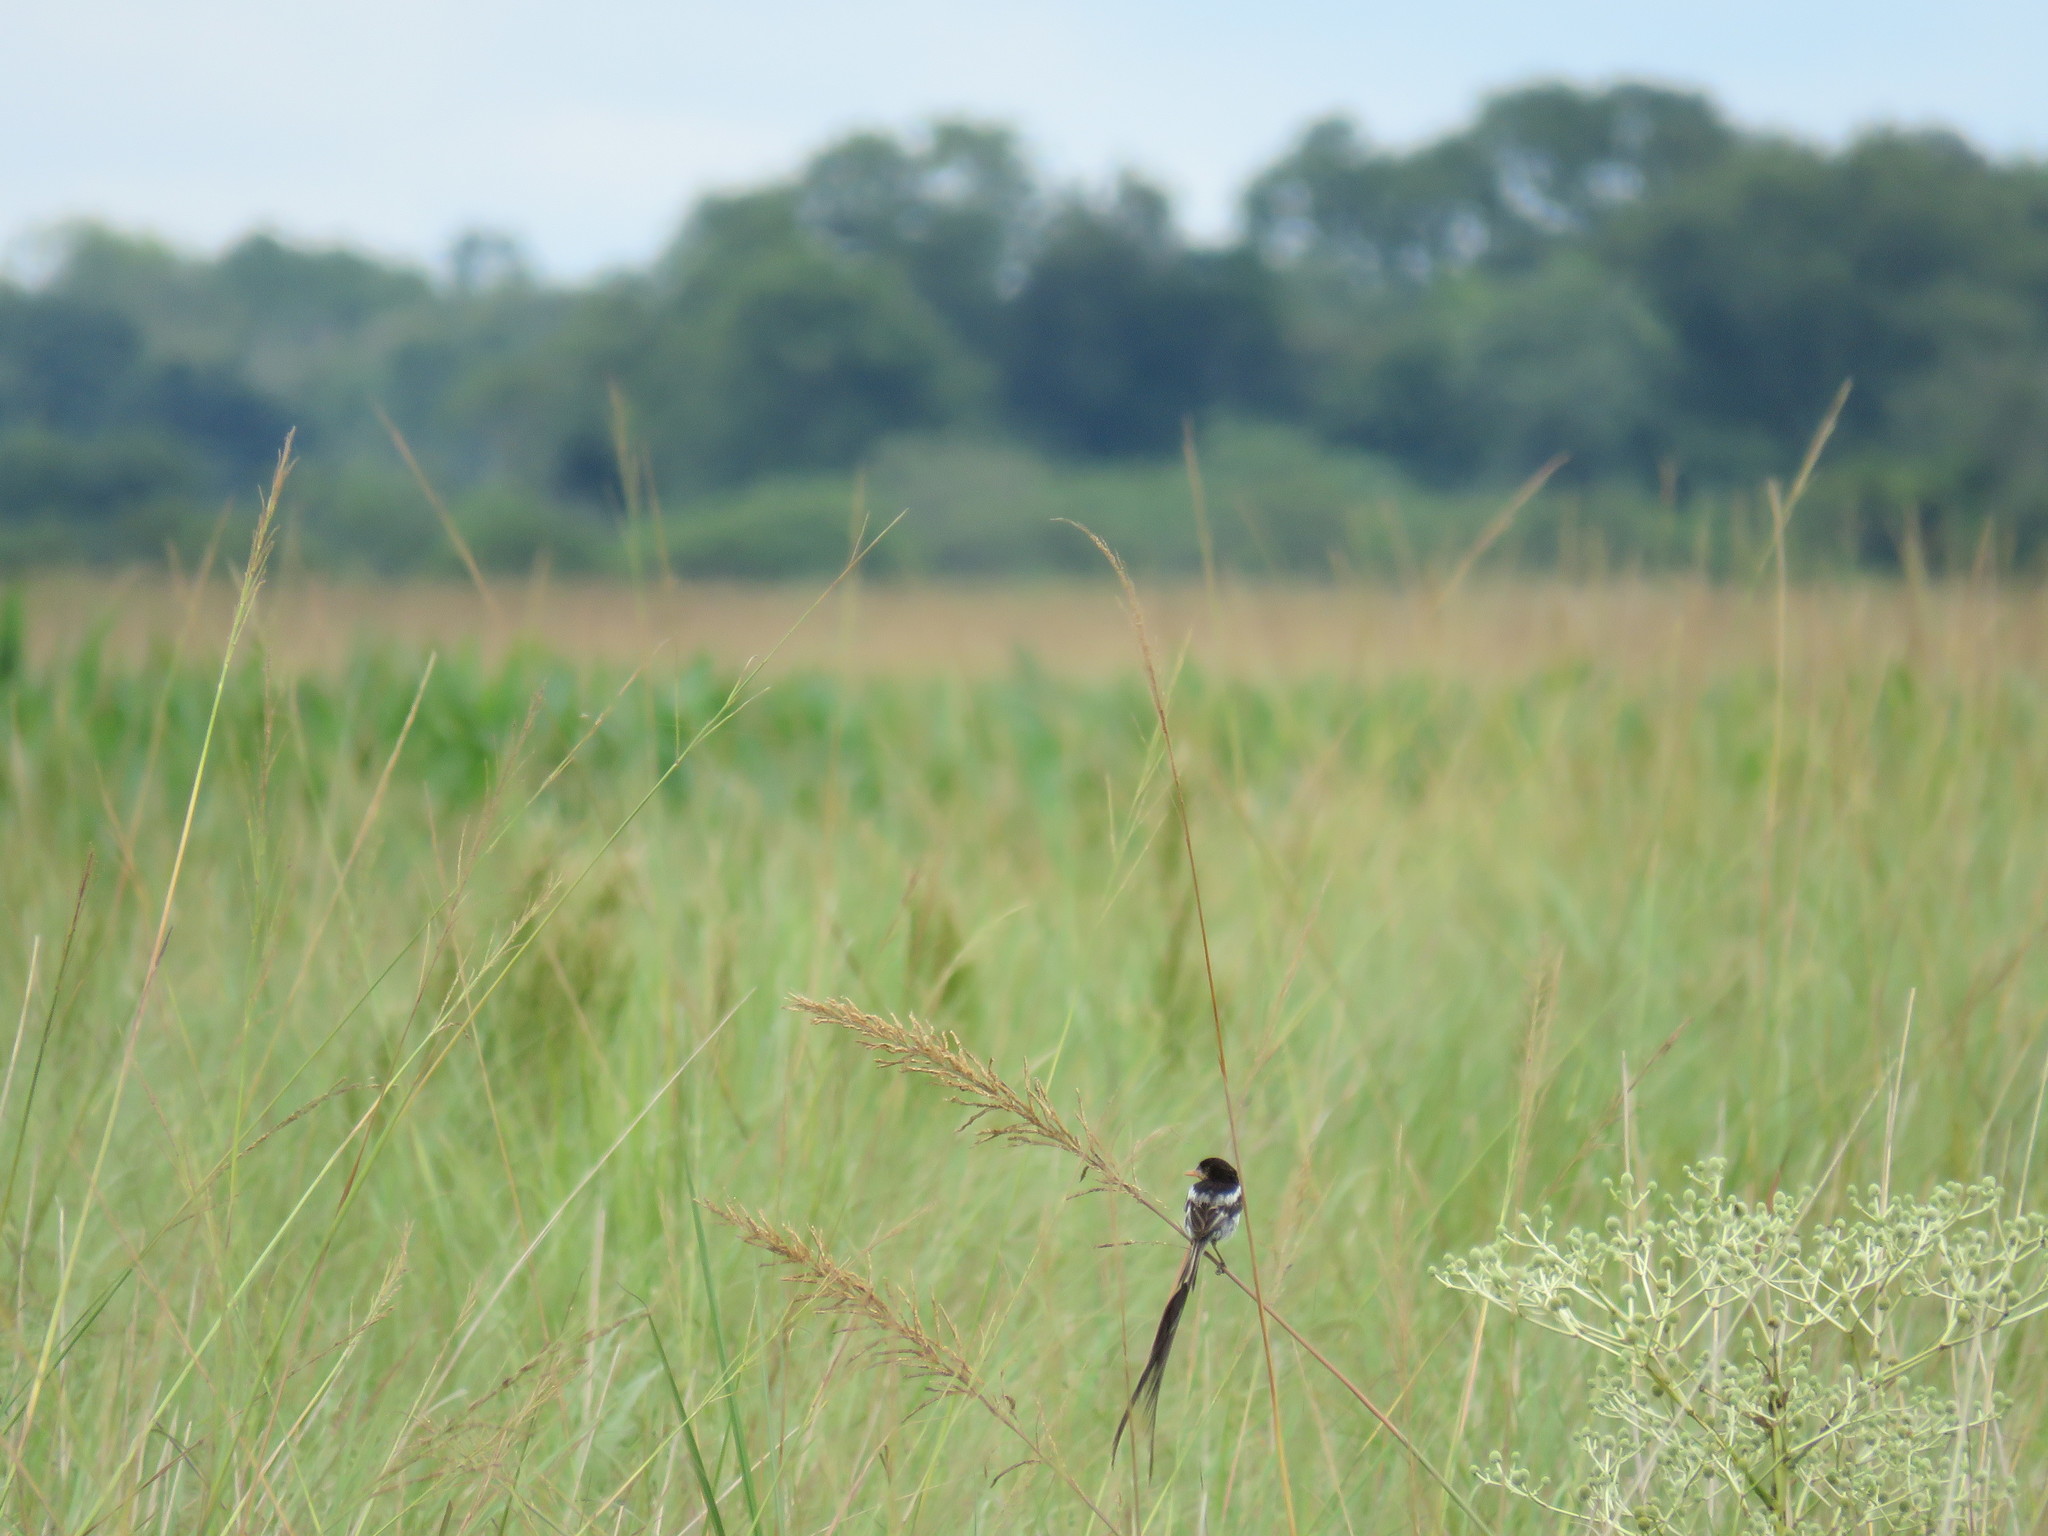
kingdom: Animalia
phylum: Chordata
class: Aves
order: Passeriformes
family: Tyrannidae
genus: Alectrurus
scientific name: Alectrurus risora
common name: Strange-tailed tyrant
